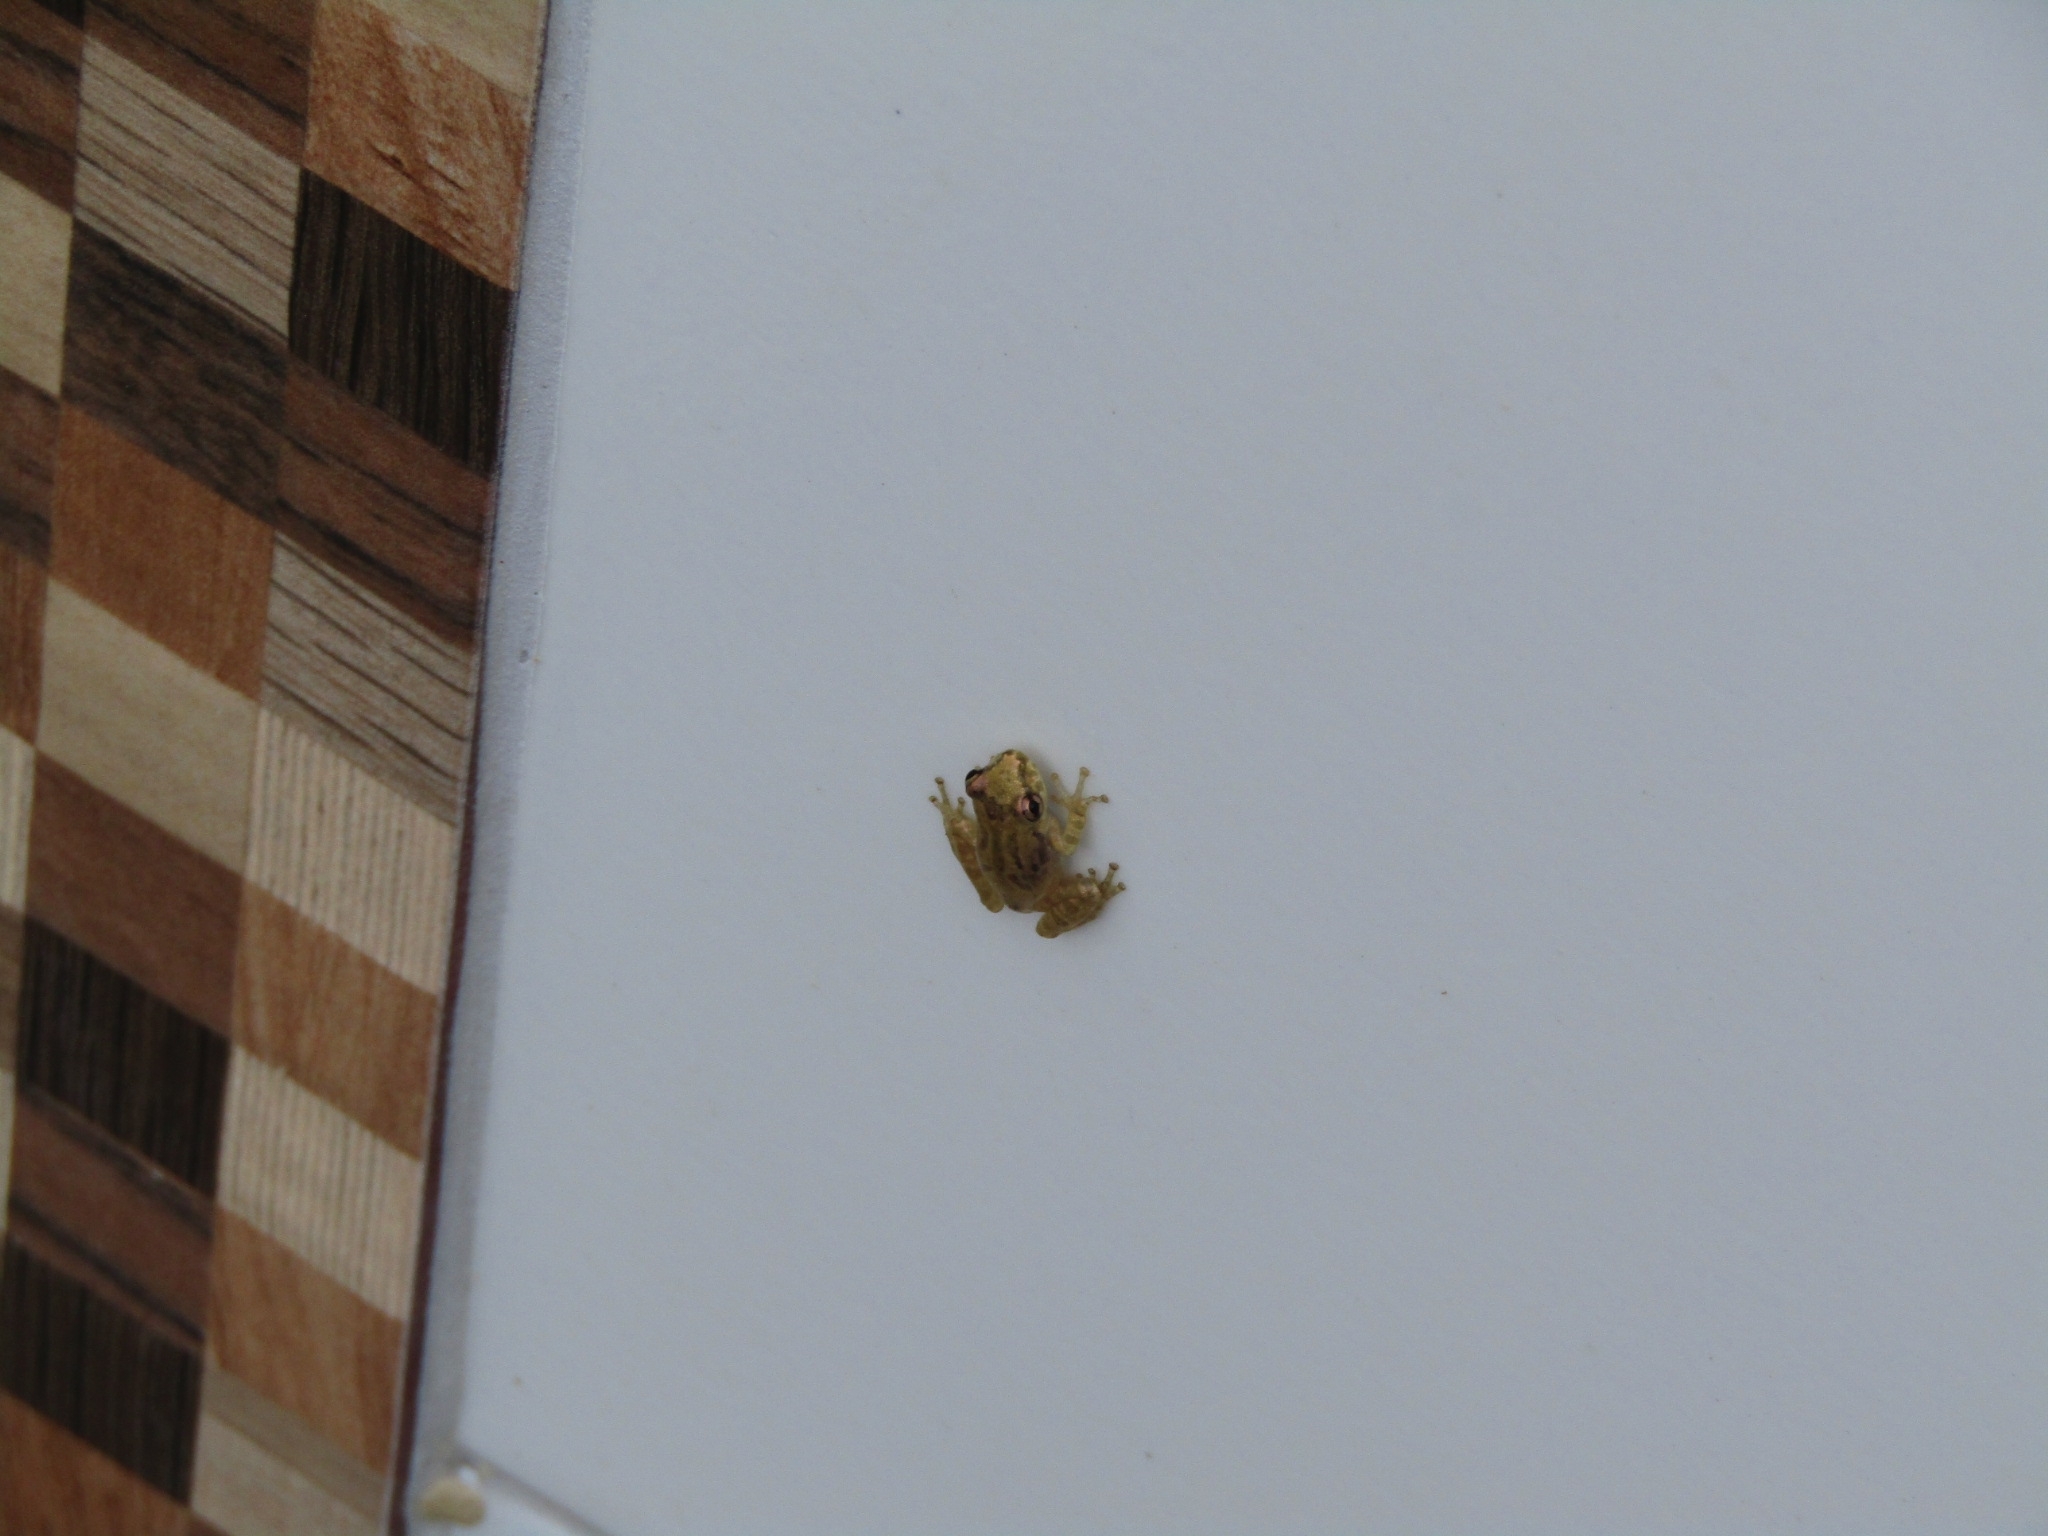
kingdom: Animalia
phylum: Chordata
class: Amphibia
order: Anura
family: Hylidae
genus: Scinax
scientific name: Scinax x-signatus
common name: Venezuela snouted treefrog
